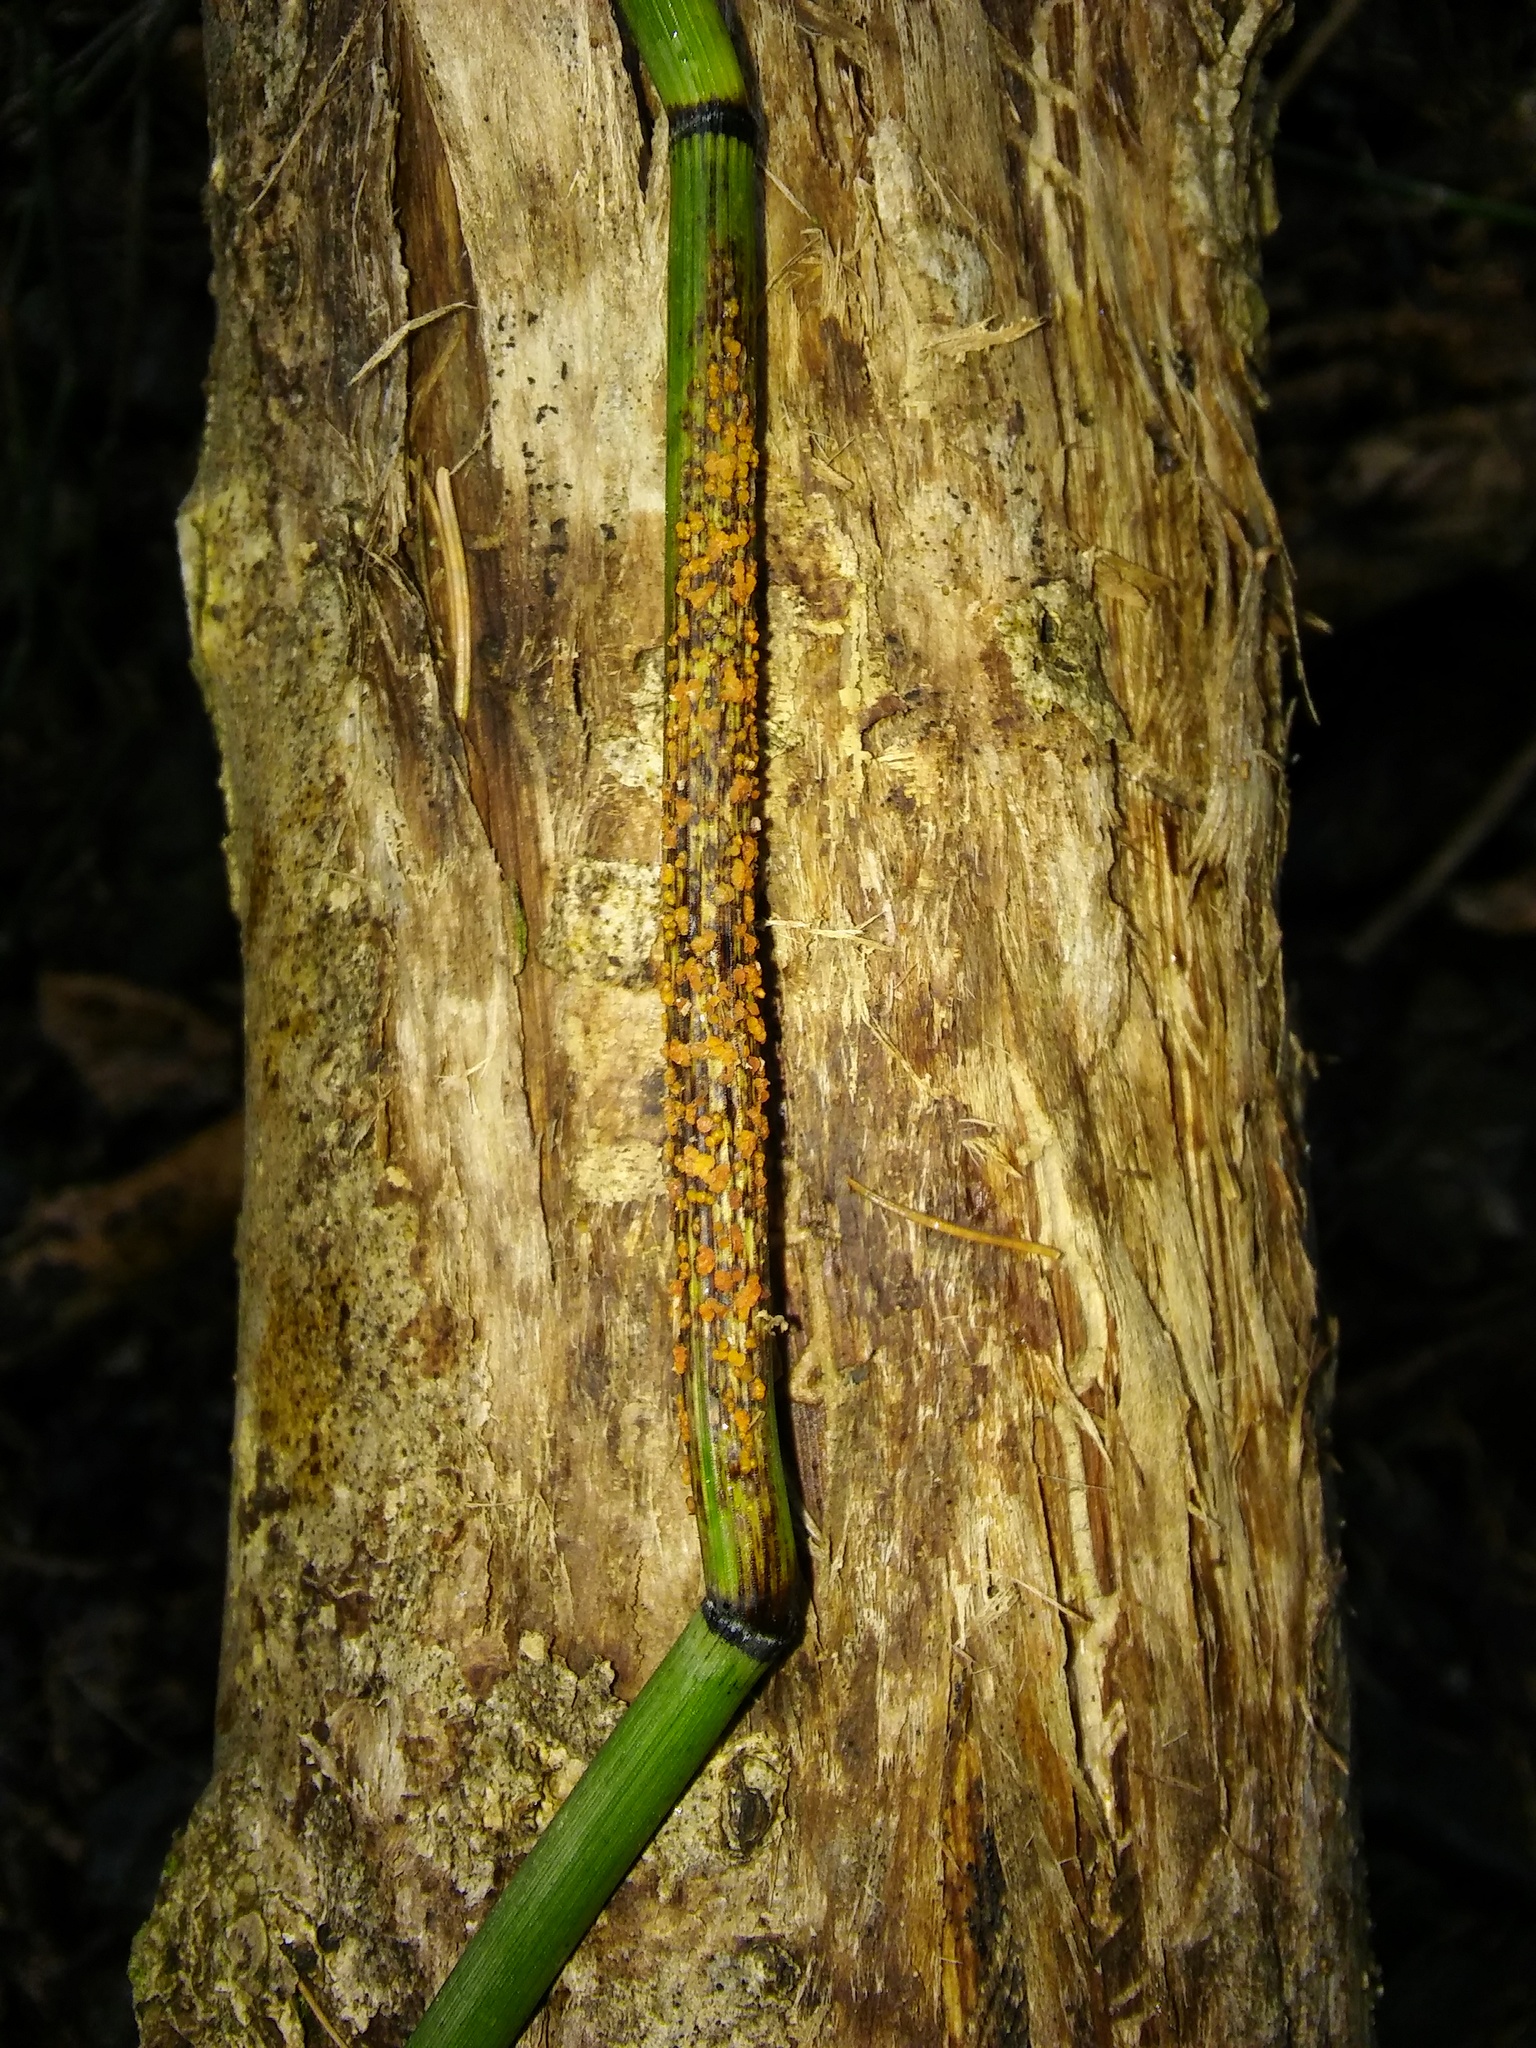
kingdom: Fungi
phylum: Ascomycota
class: Leotiomycetes
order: Helotiales
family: Helotiaceae
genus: Stamnaria
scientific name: Stamnaria americana
